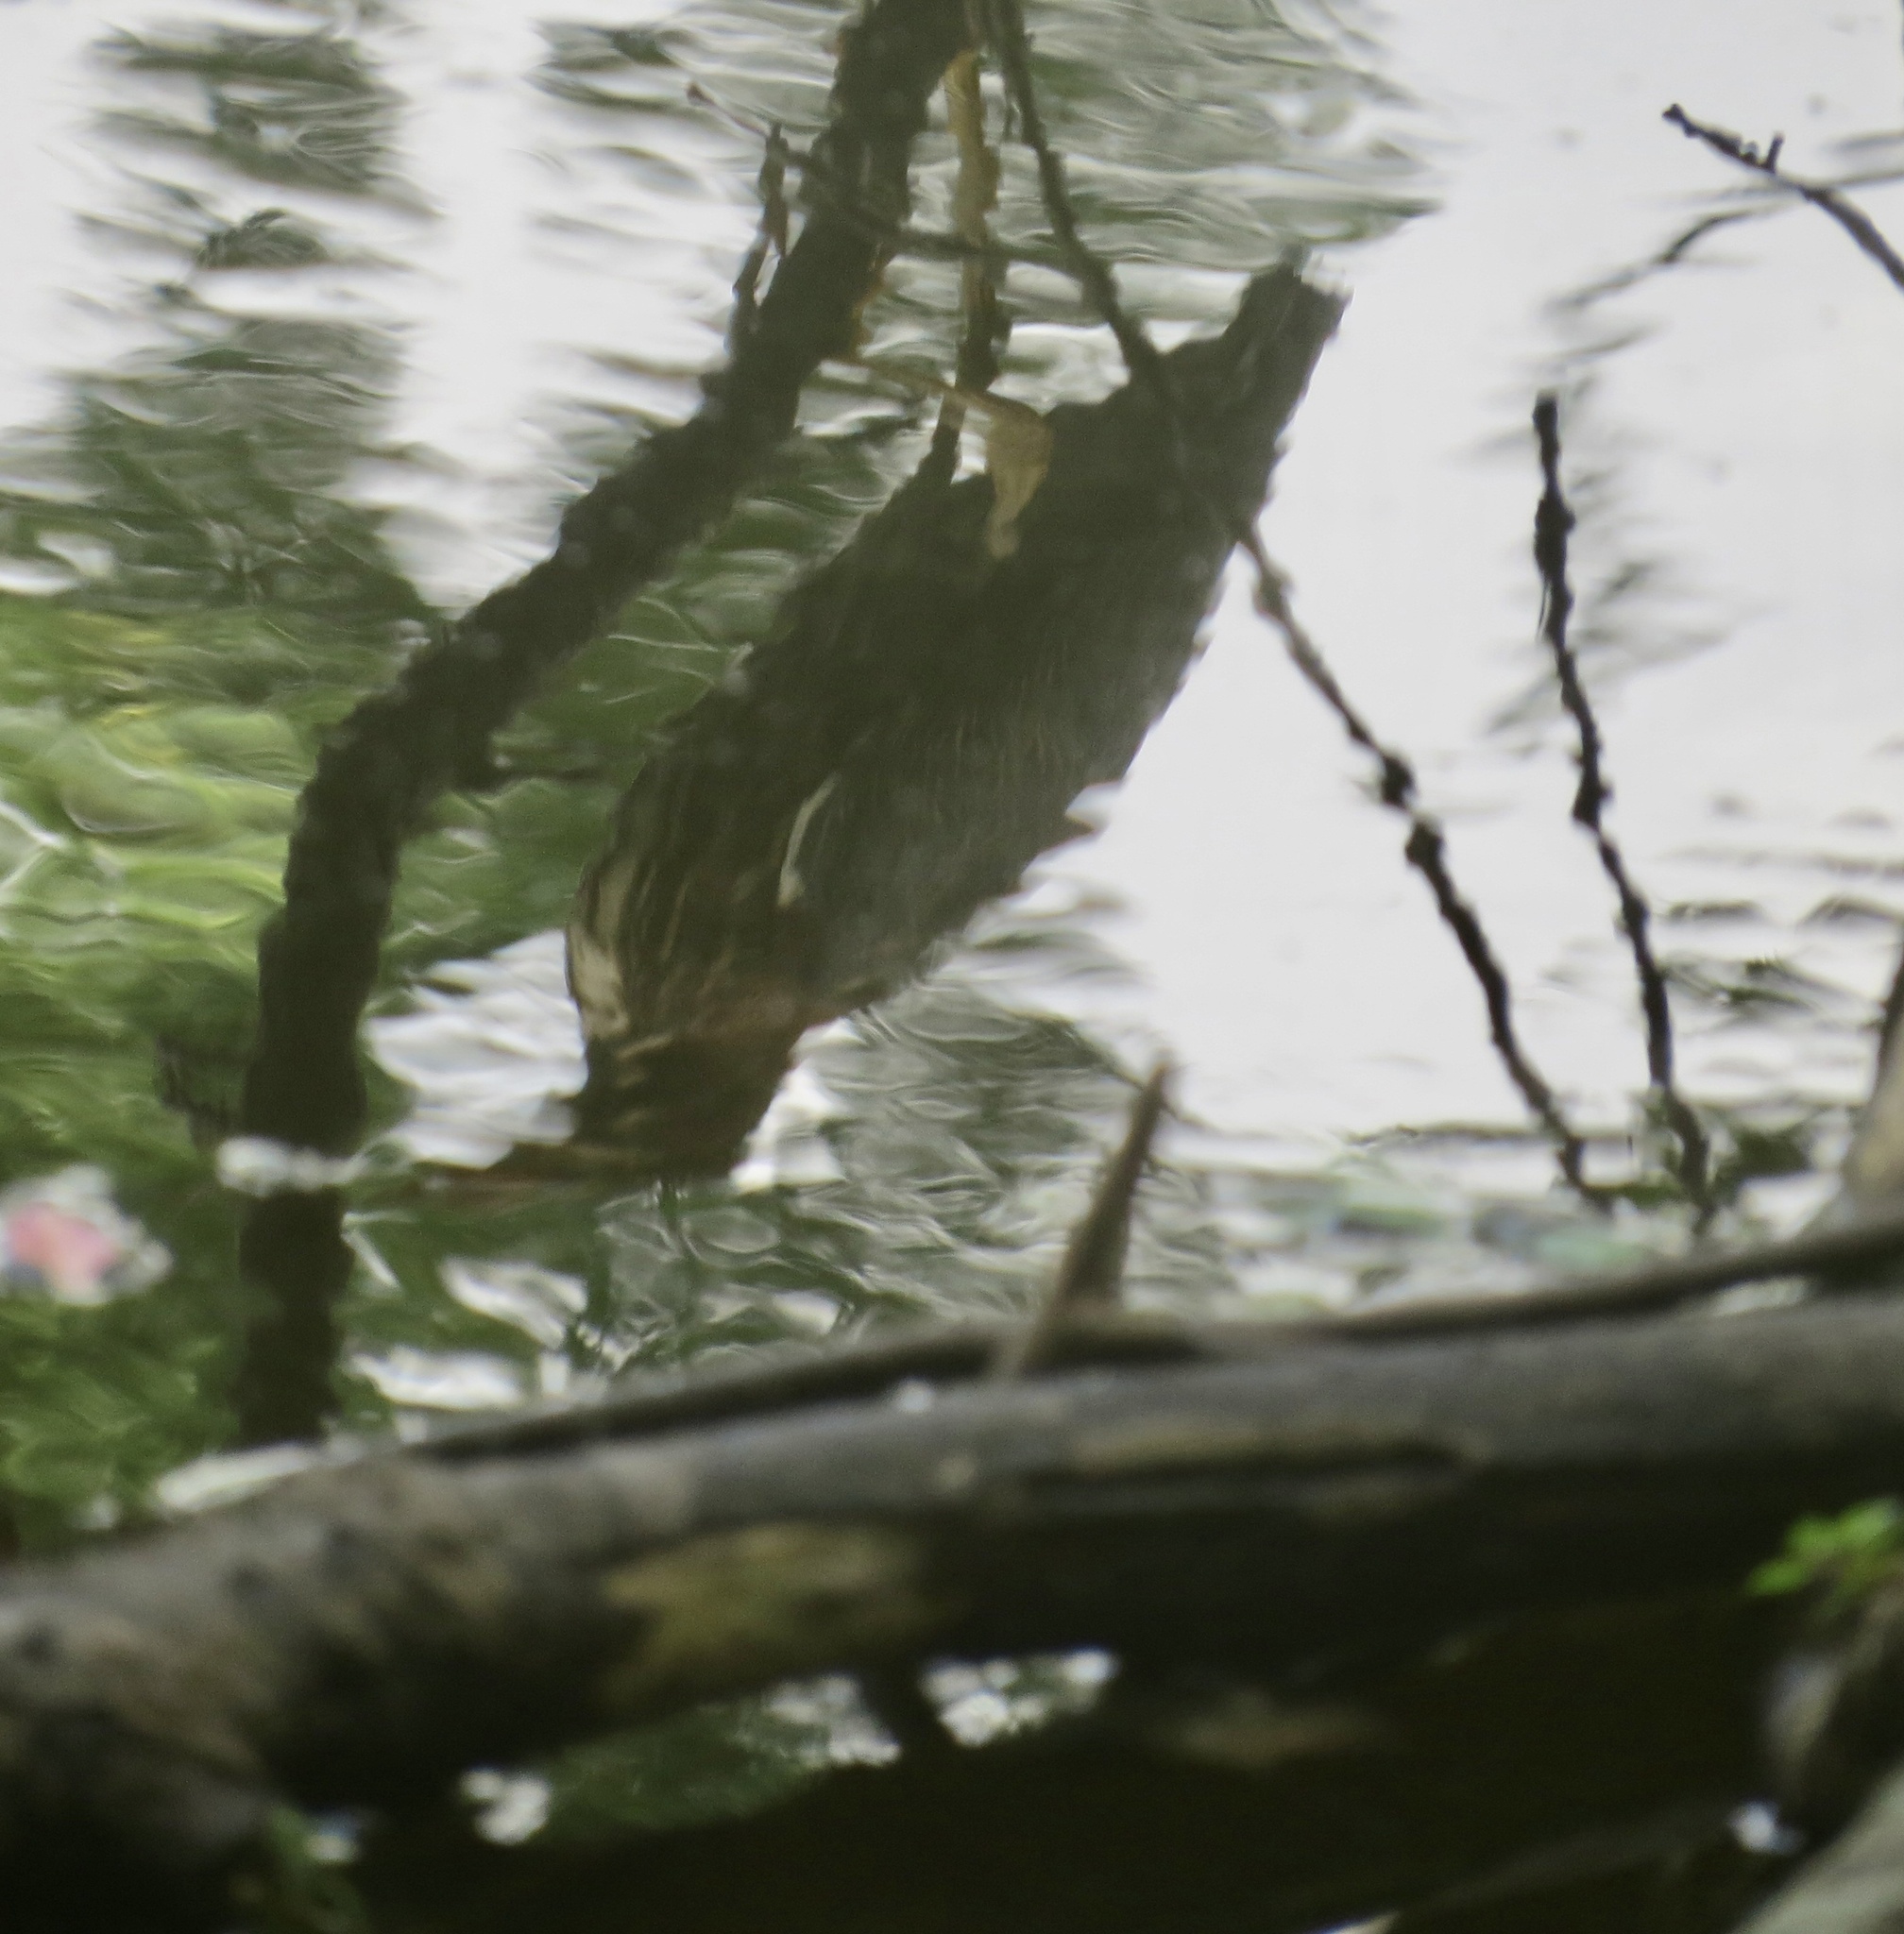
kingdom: Animalia
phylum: Chordata
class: Aves
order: Pelecaniformes
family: Ardeidae
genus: Butorides
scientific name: Butorides virescens
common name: Green heron
